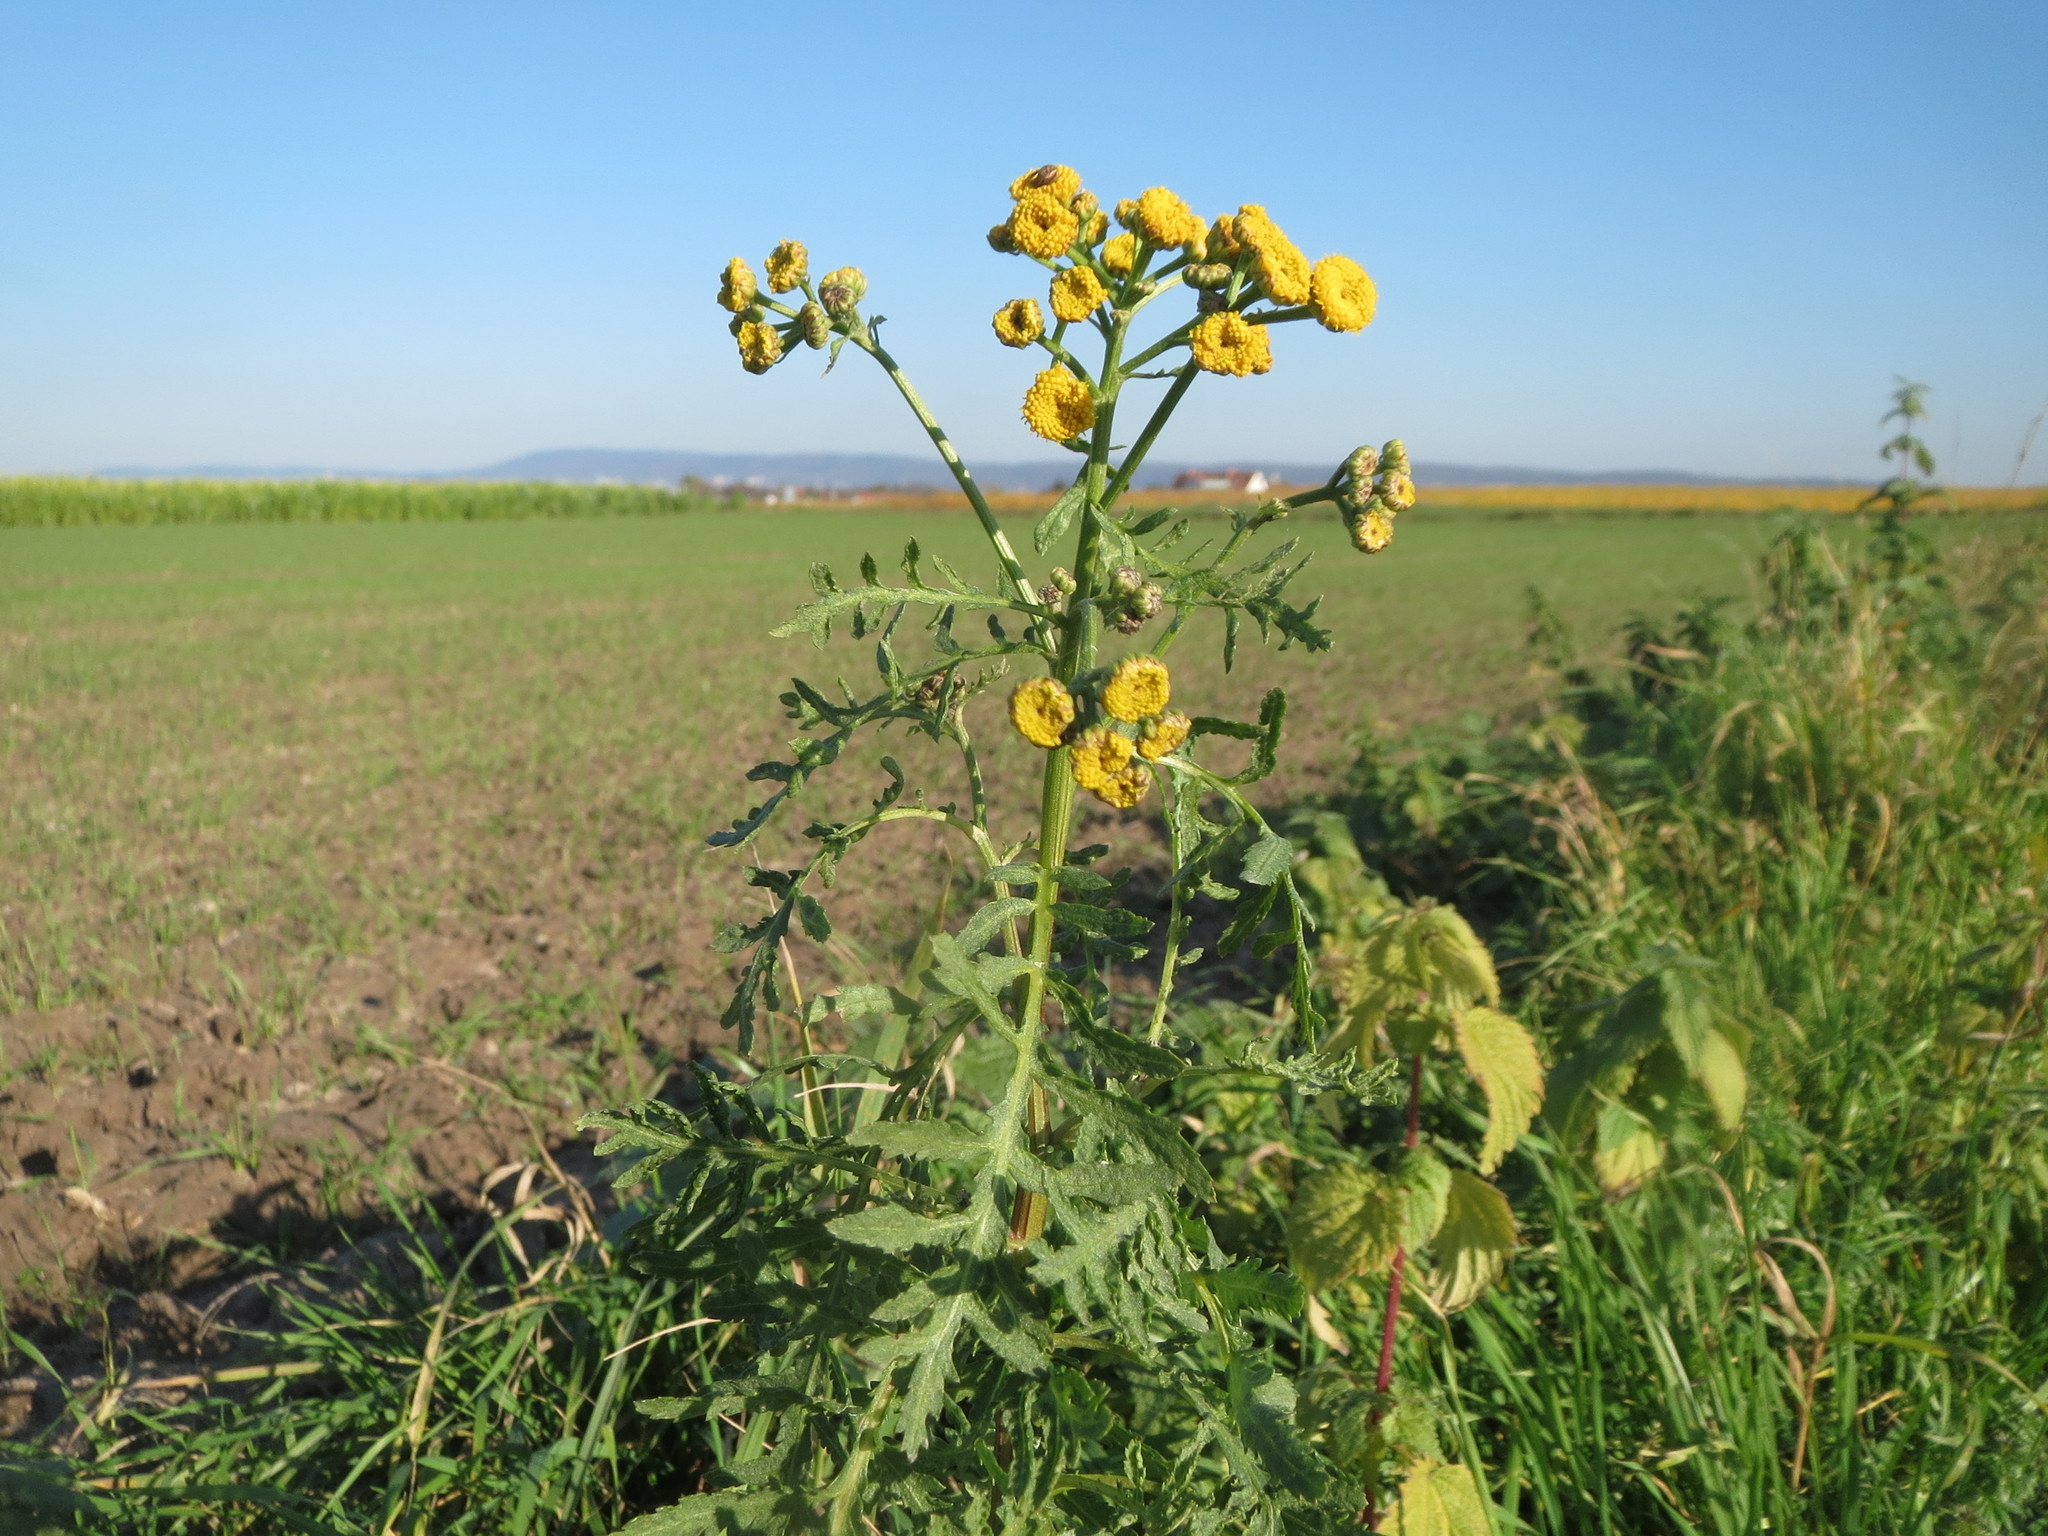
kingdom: Plantae
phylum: Tracheophyta
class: Magnoliopsida
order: Asterales
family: Asteraceae
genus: Tanacetum
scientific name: Tanacetum vulgare
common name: Common tansy
